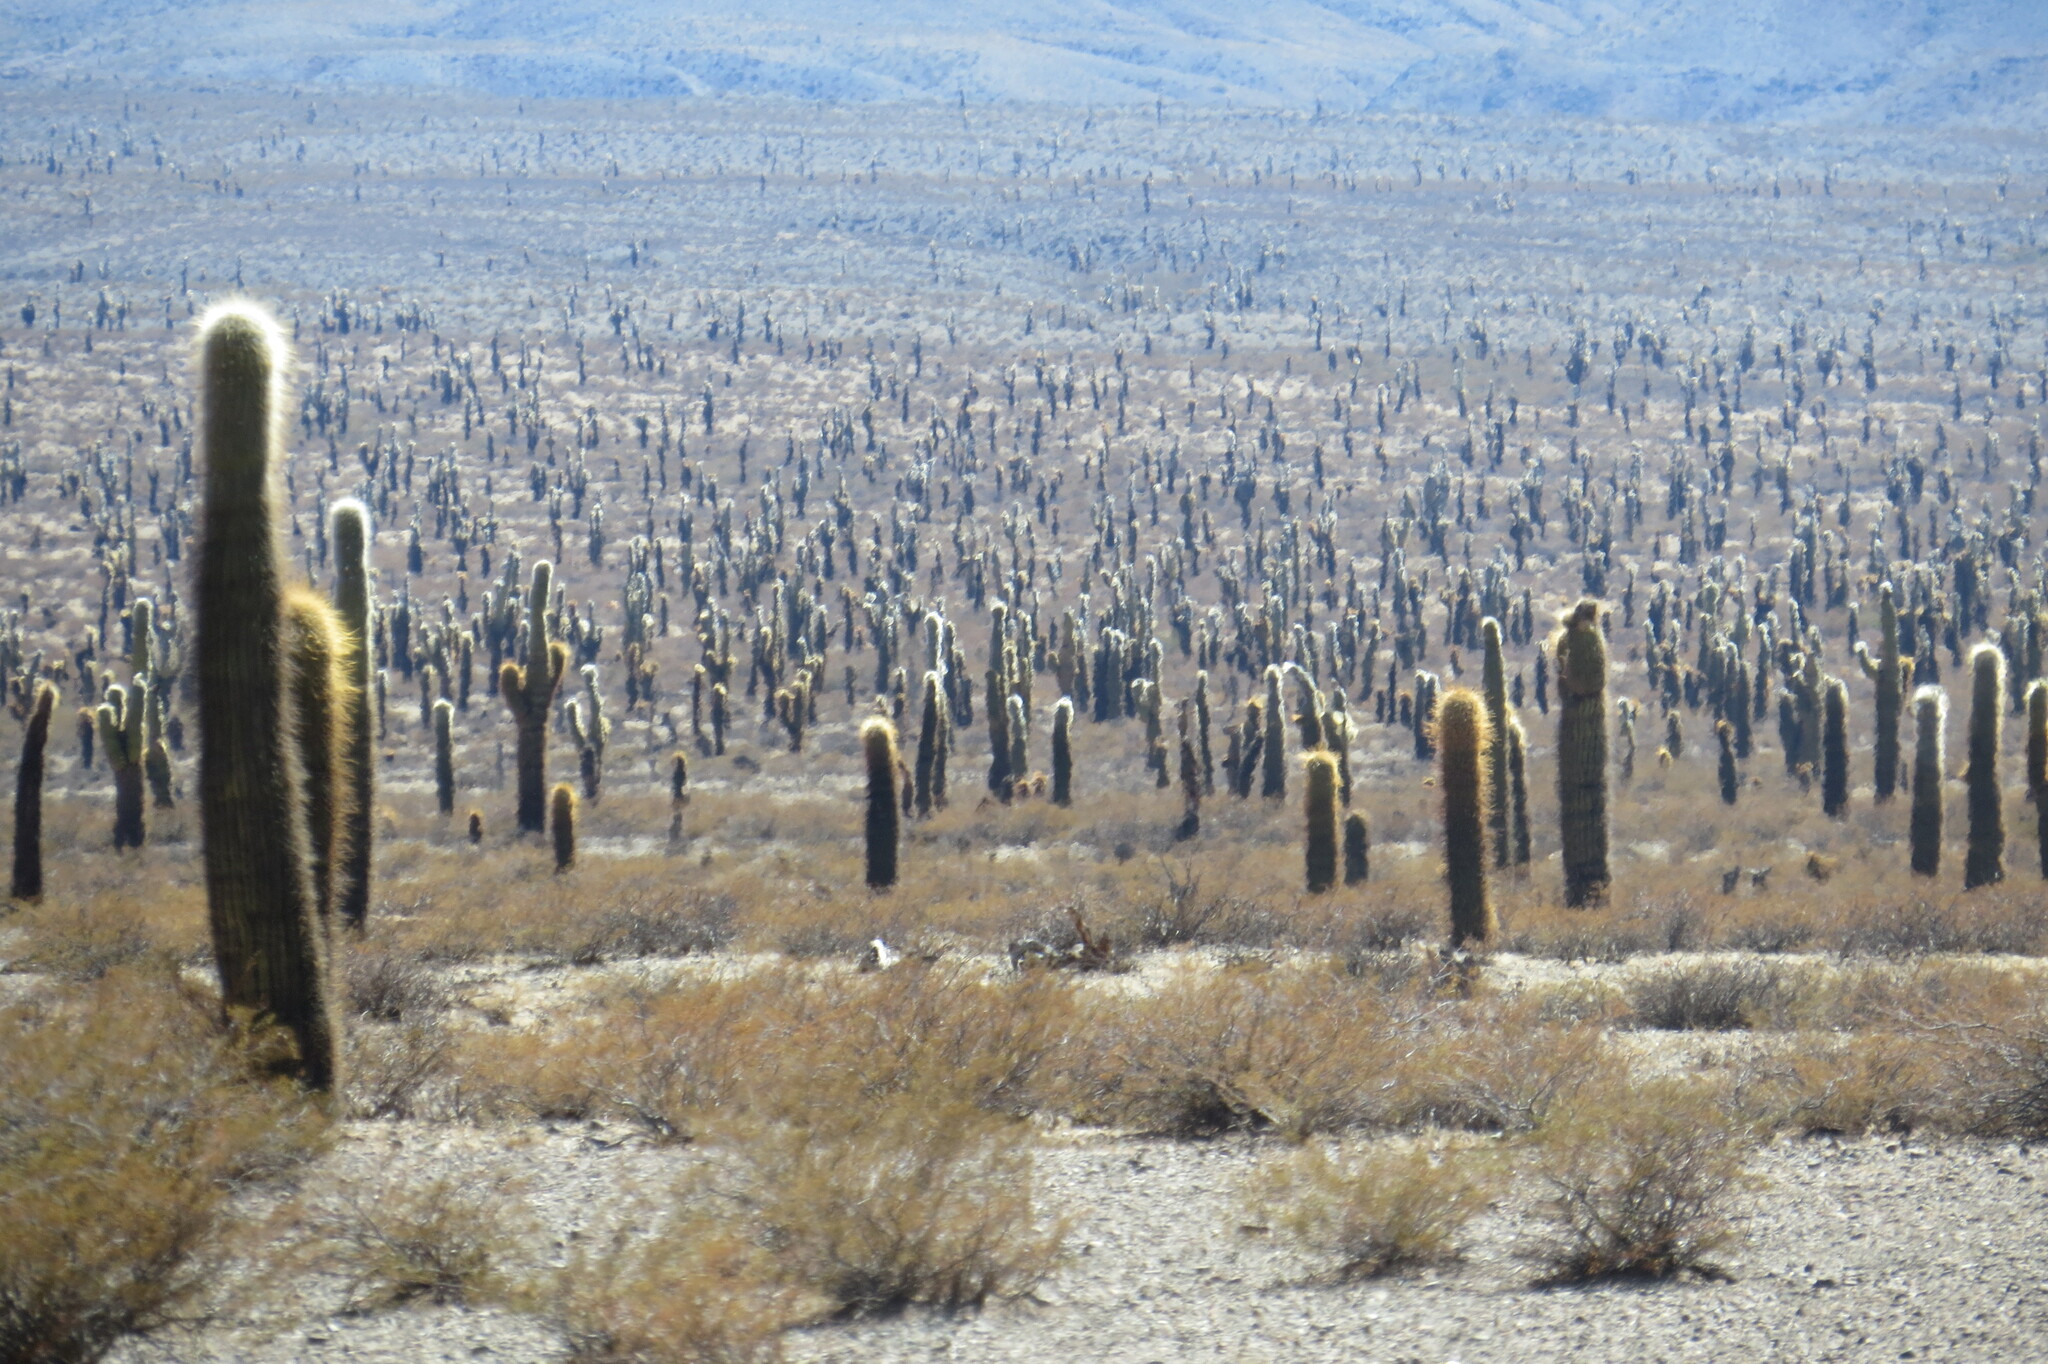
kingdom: Plantae
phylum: Tracheophyta
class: Magnoliopsida
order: Caryophyllales
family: Cactaceae
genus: Leucostele
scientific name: Leucostele atacamensis
